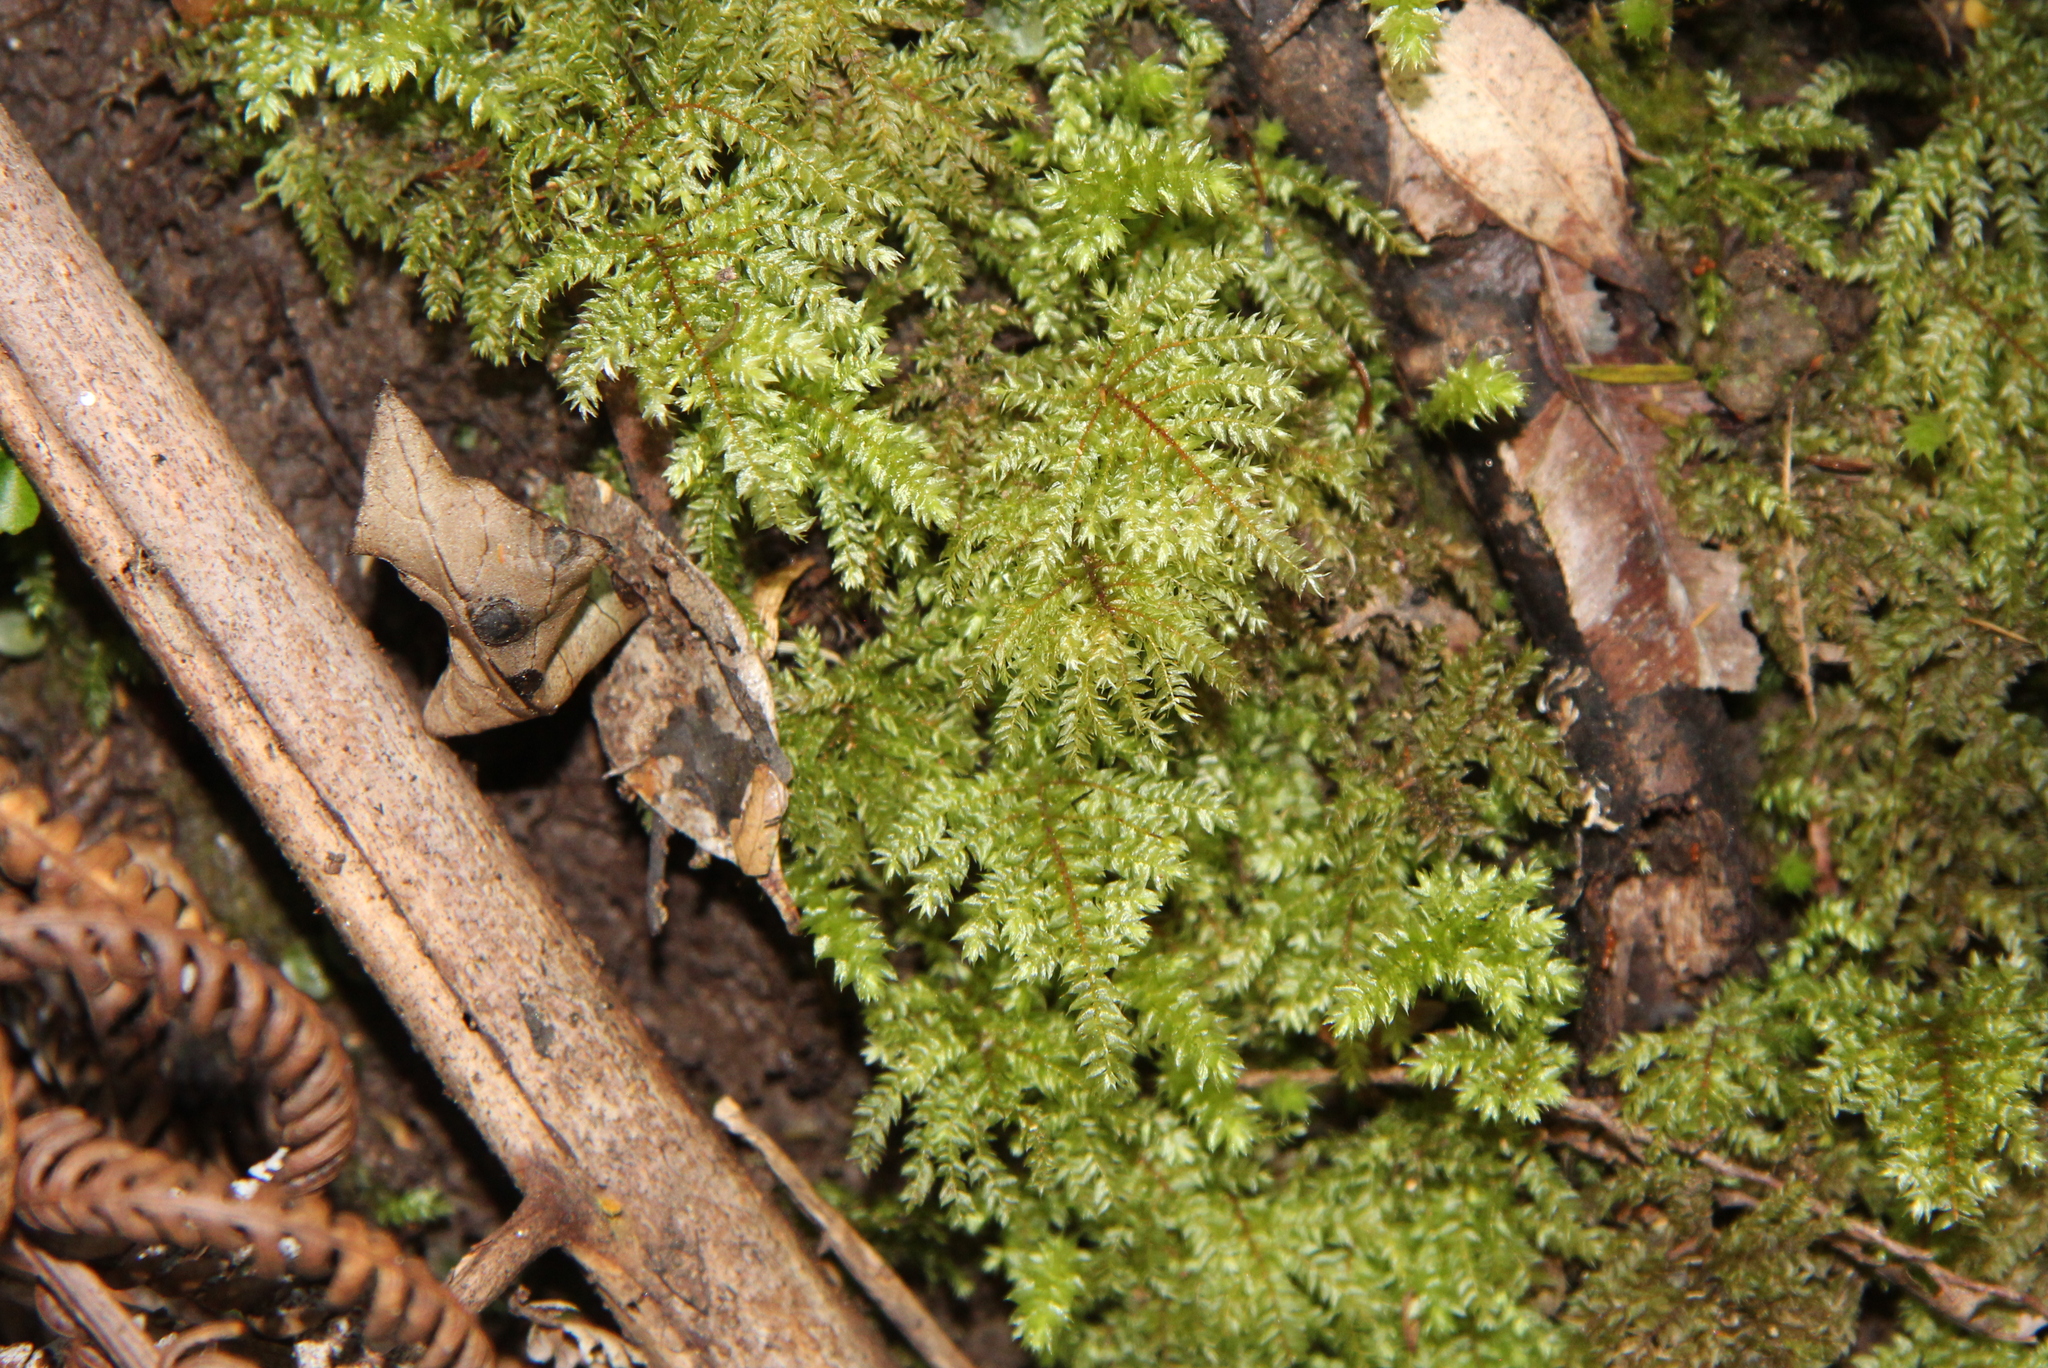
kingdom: Plantae
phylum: Bryophyta
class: Bryopsida
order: Hypnodendrales
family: Spiridentaceae
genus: Hypnodendron
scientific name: Hypnodendron arcuatum
